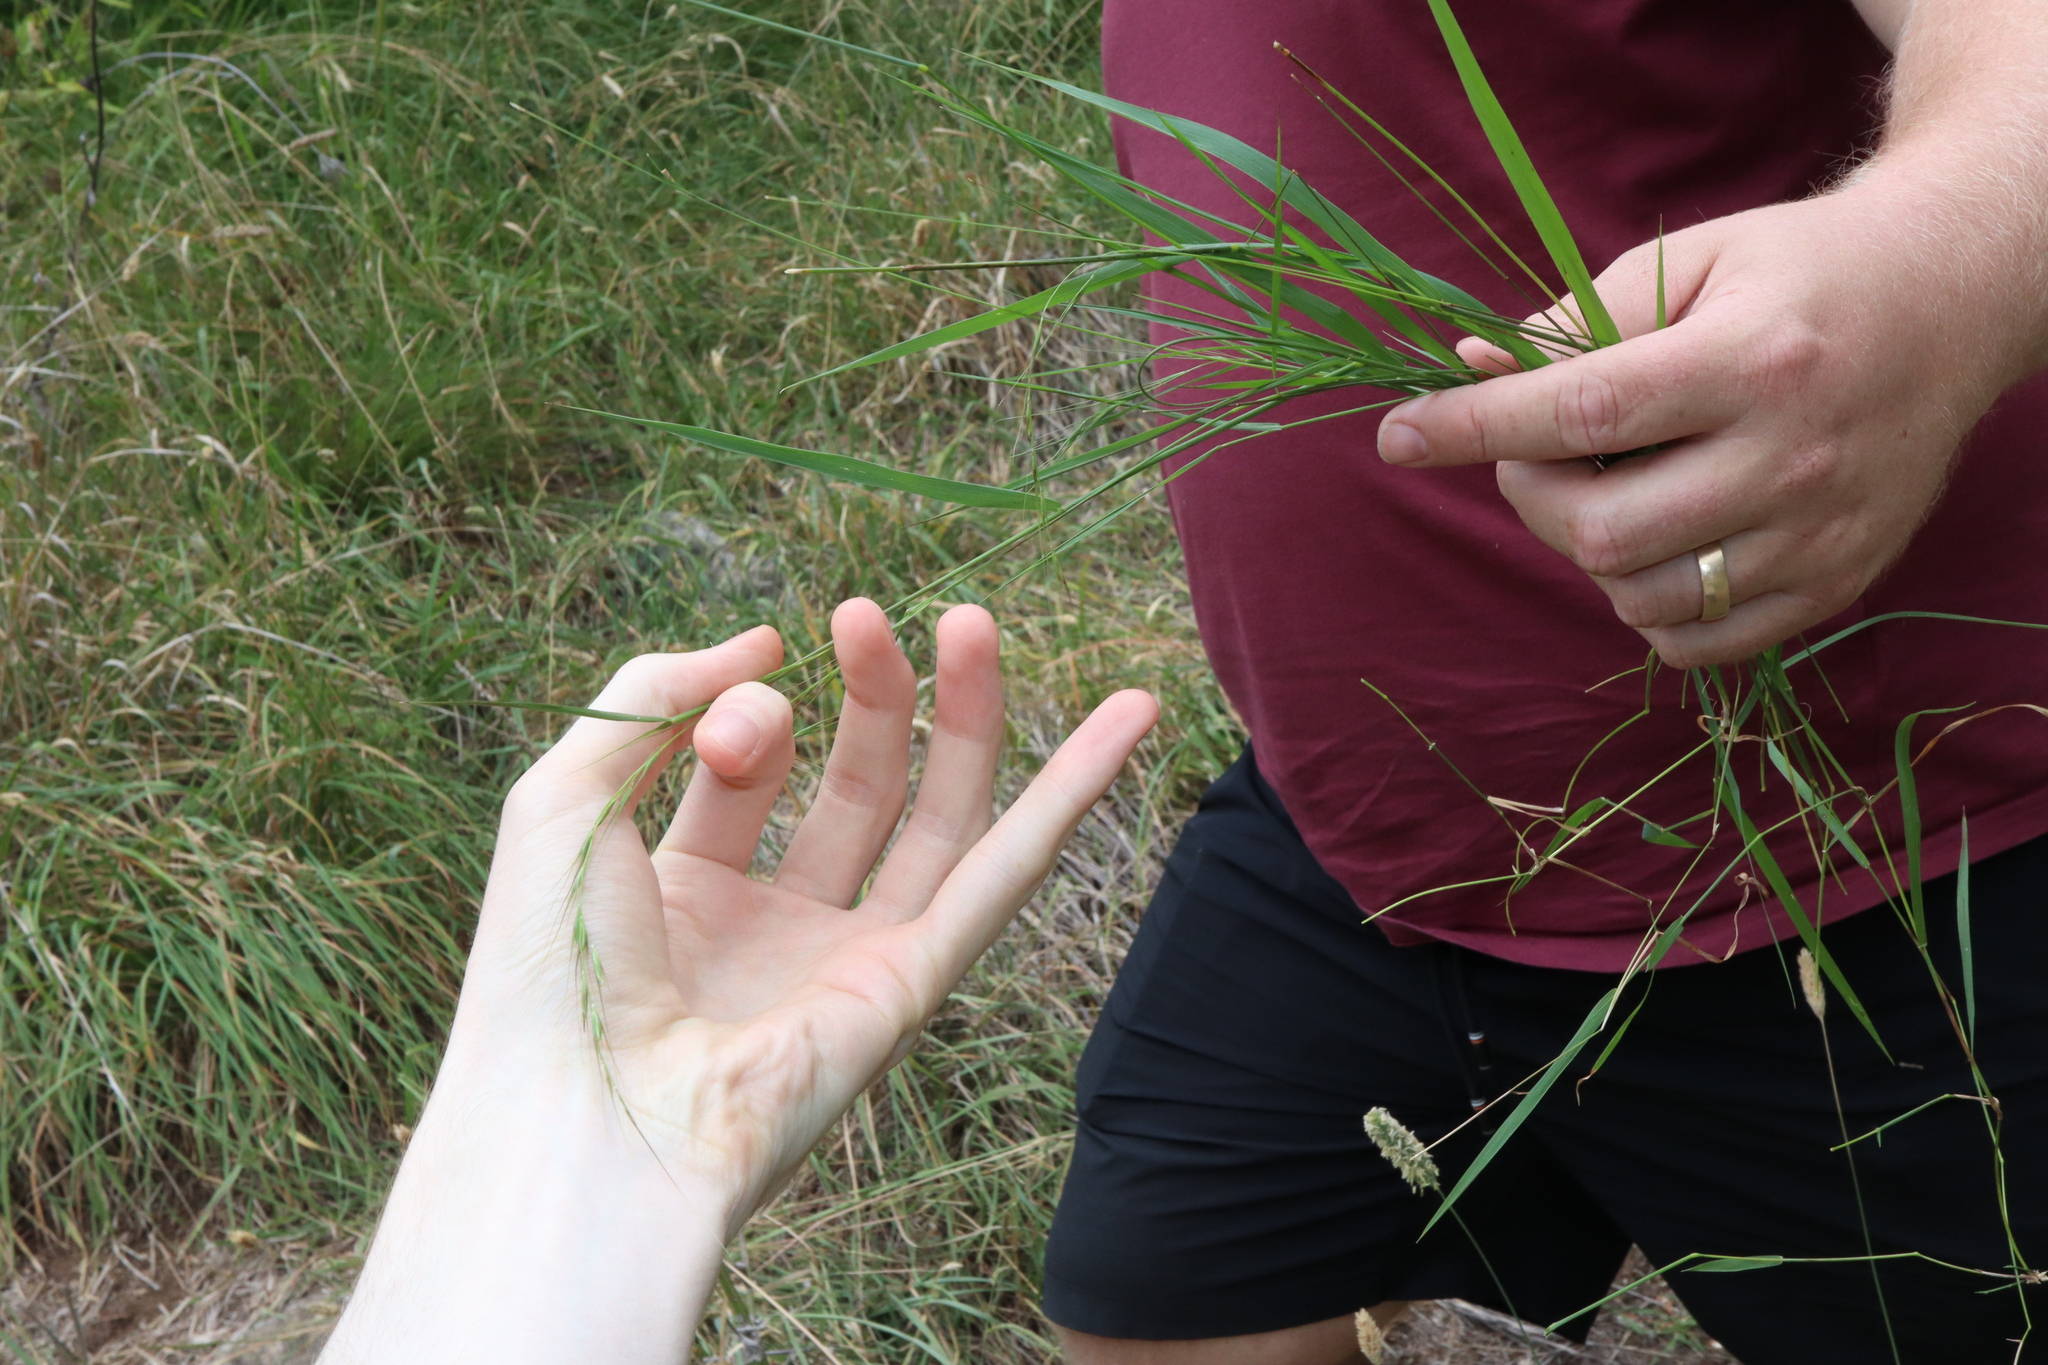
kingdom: Plantae
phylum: Tracheophyta
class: Liliopsida
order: Poales
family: Poaceae
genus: Microlaena
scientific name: Microlaena stipoides
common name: Meadow ricegrass
